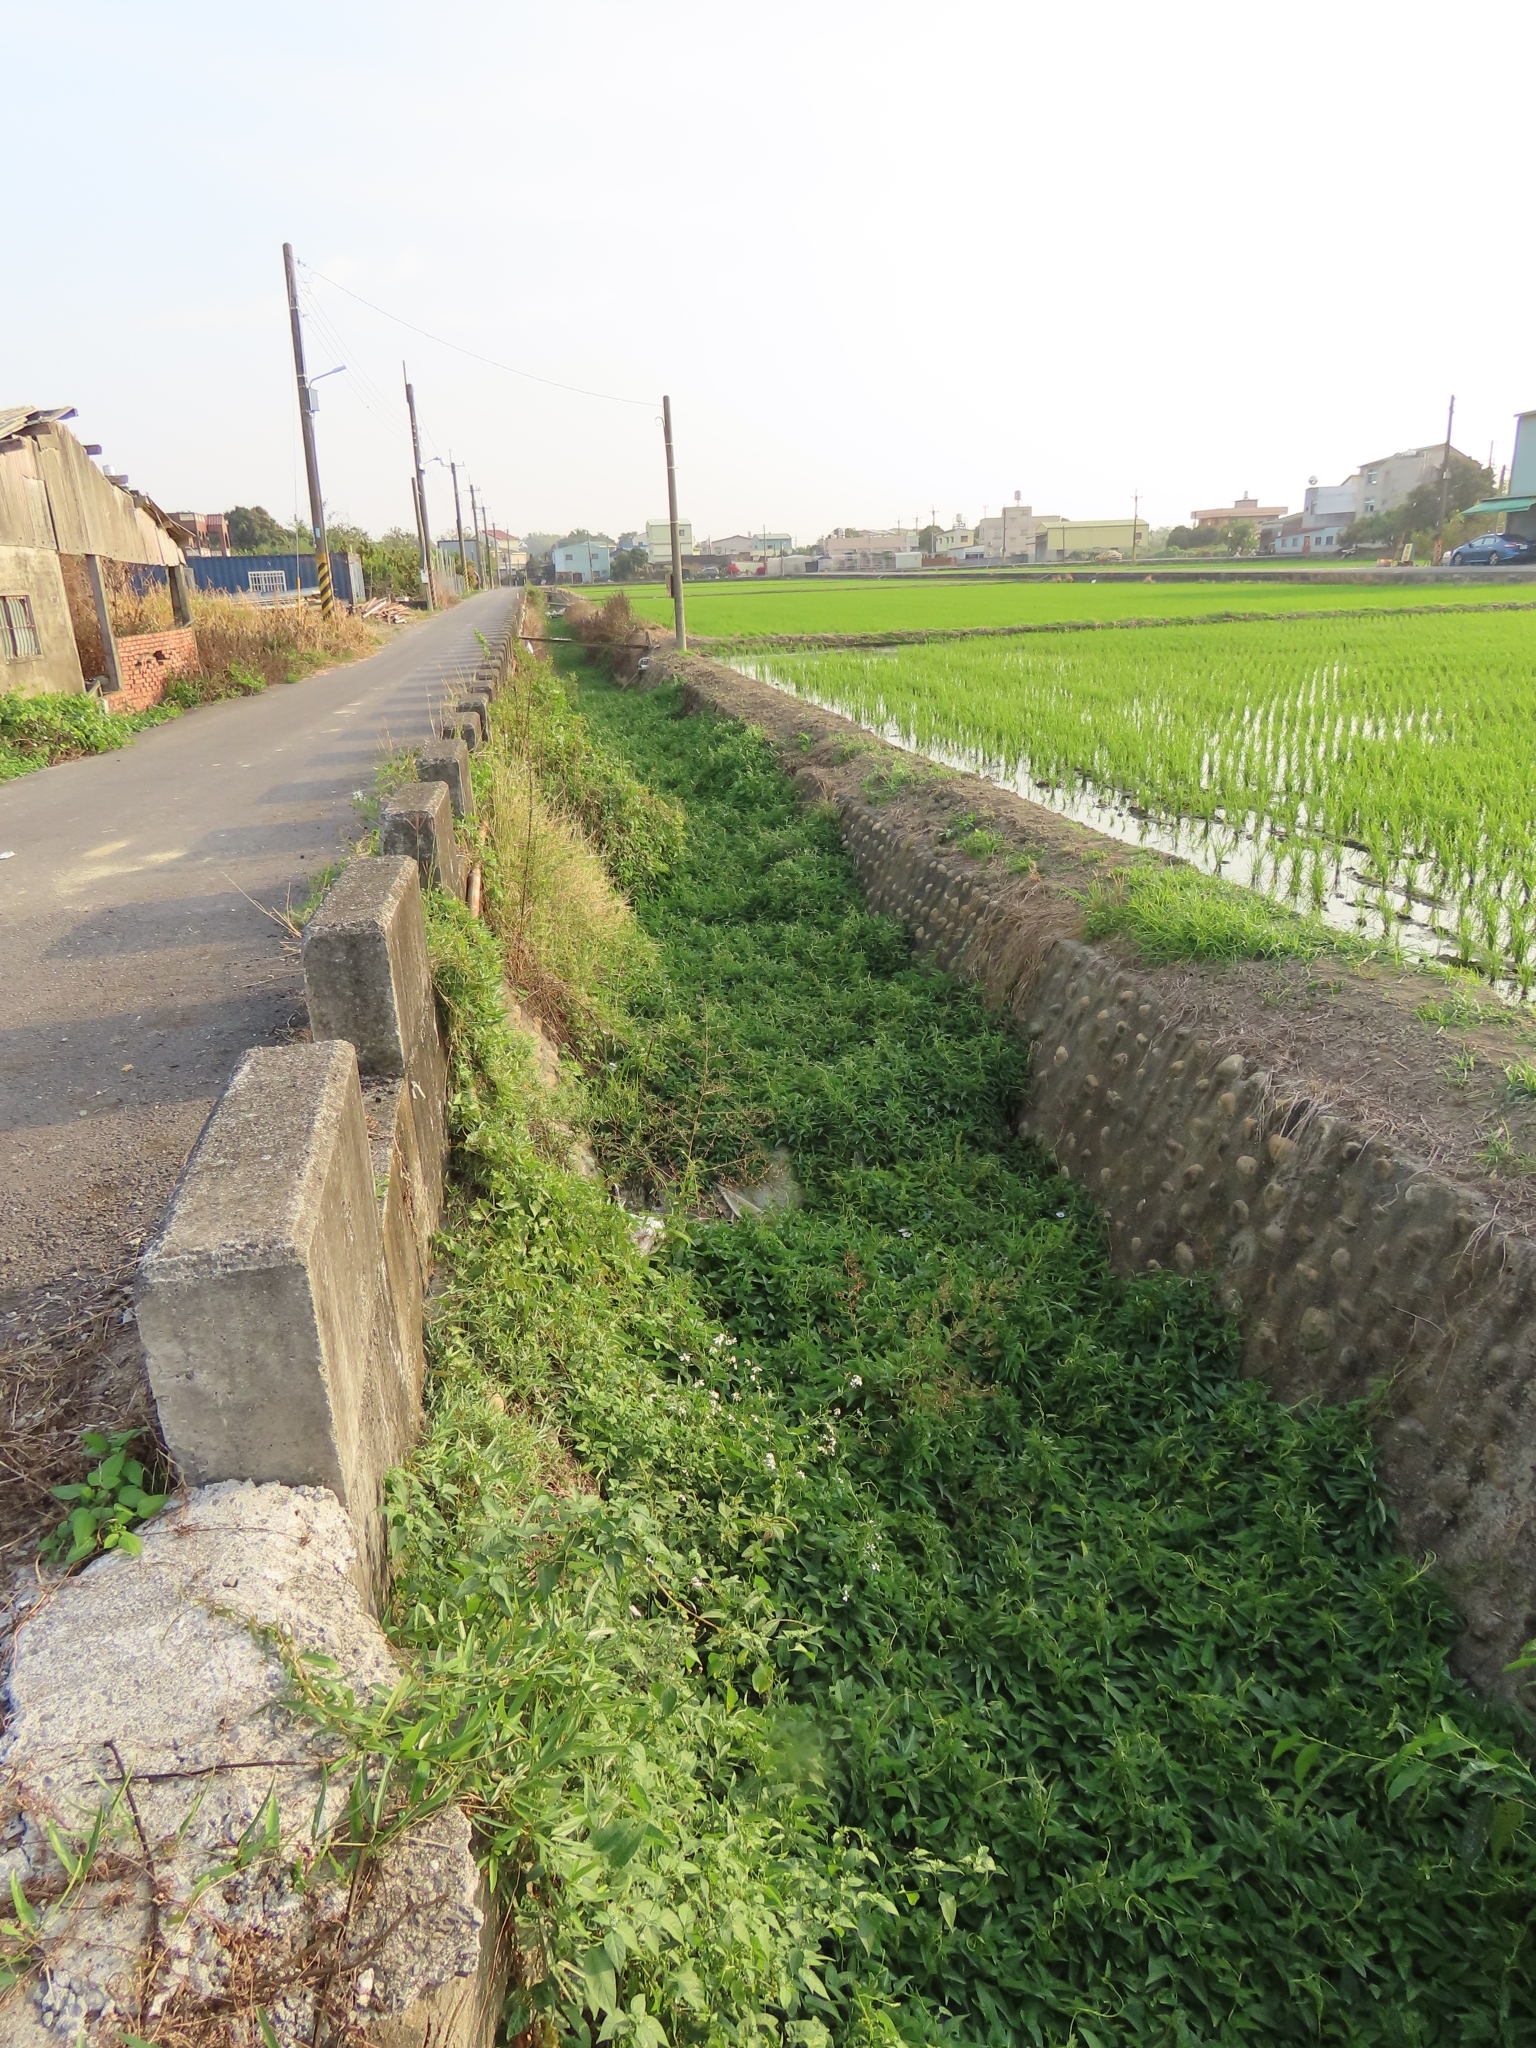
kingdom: Plantae
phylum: Tracheophyta
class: Magnoliopsida
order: Solanales
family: Convolvulaceae
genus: Ipomoea
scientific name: Ipomoea aquatica
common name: Swamp morning-glory
